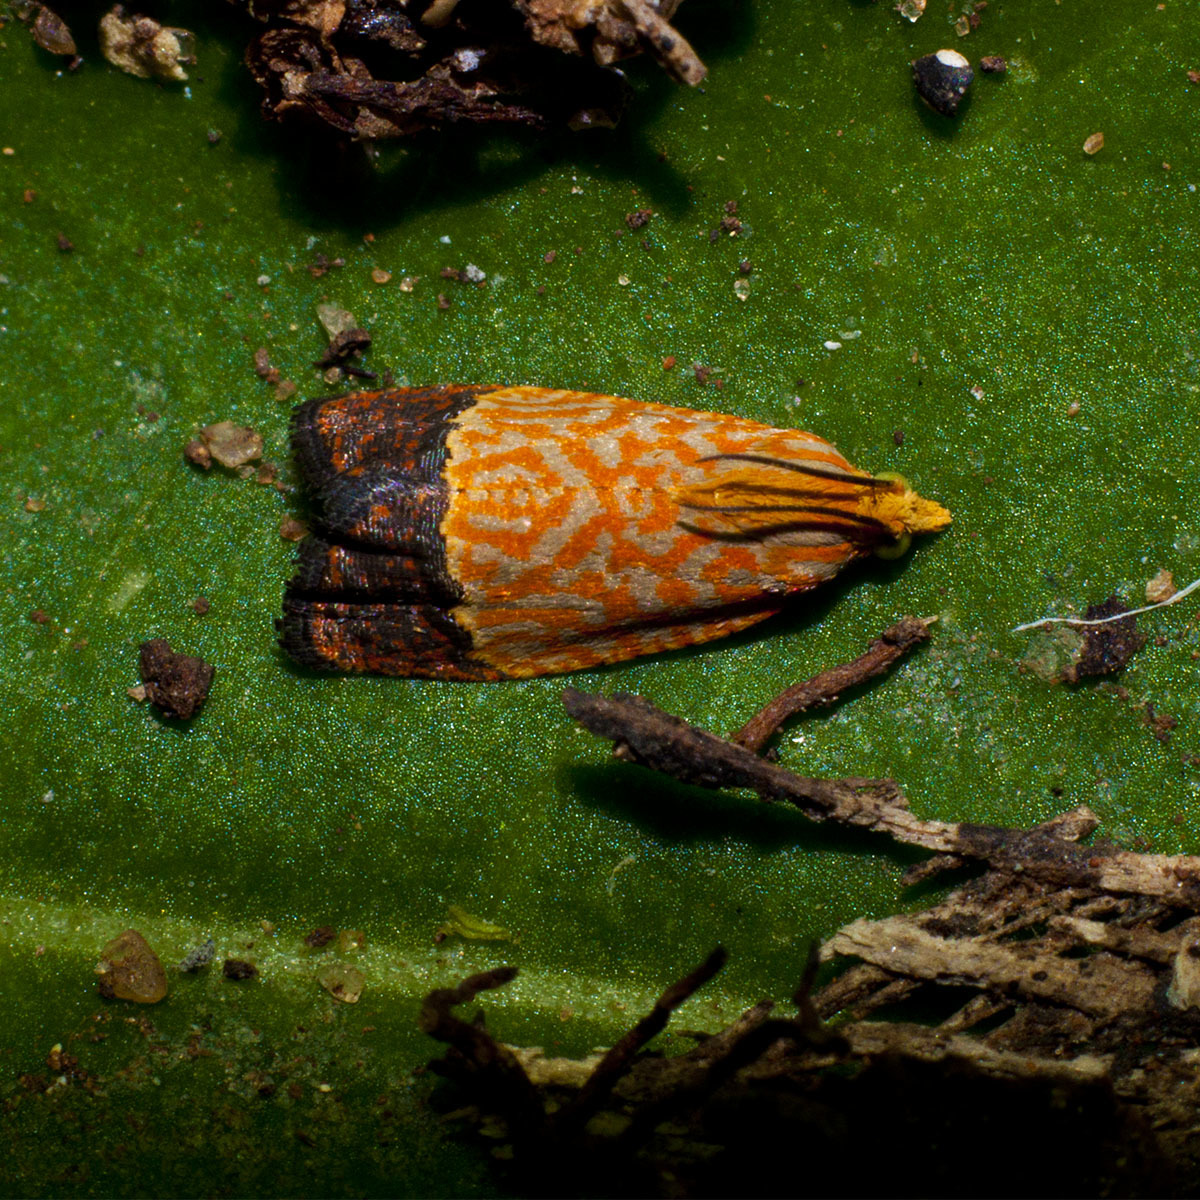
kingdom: Animalia
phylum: Arthropoda
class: Insecta
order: Lepidoptera
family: Tortricidae
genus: Loboschiza
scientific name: Loboschiza koenigiana
